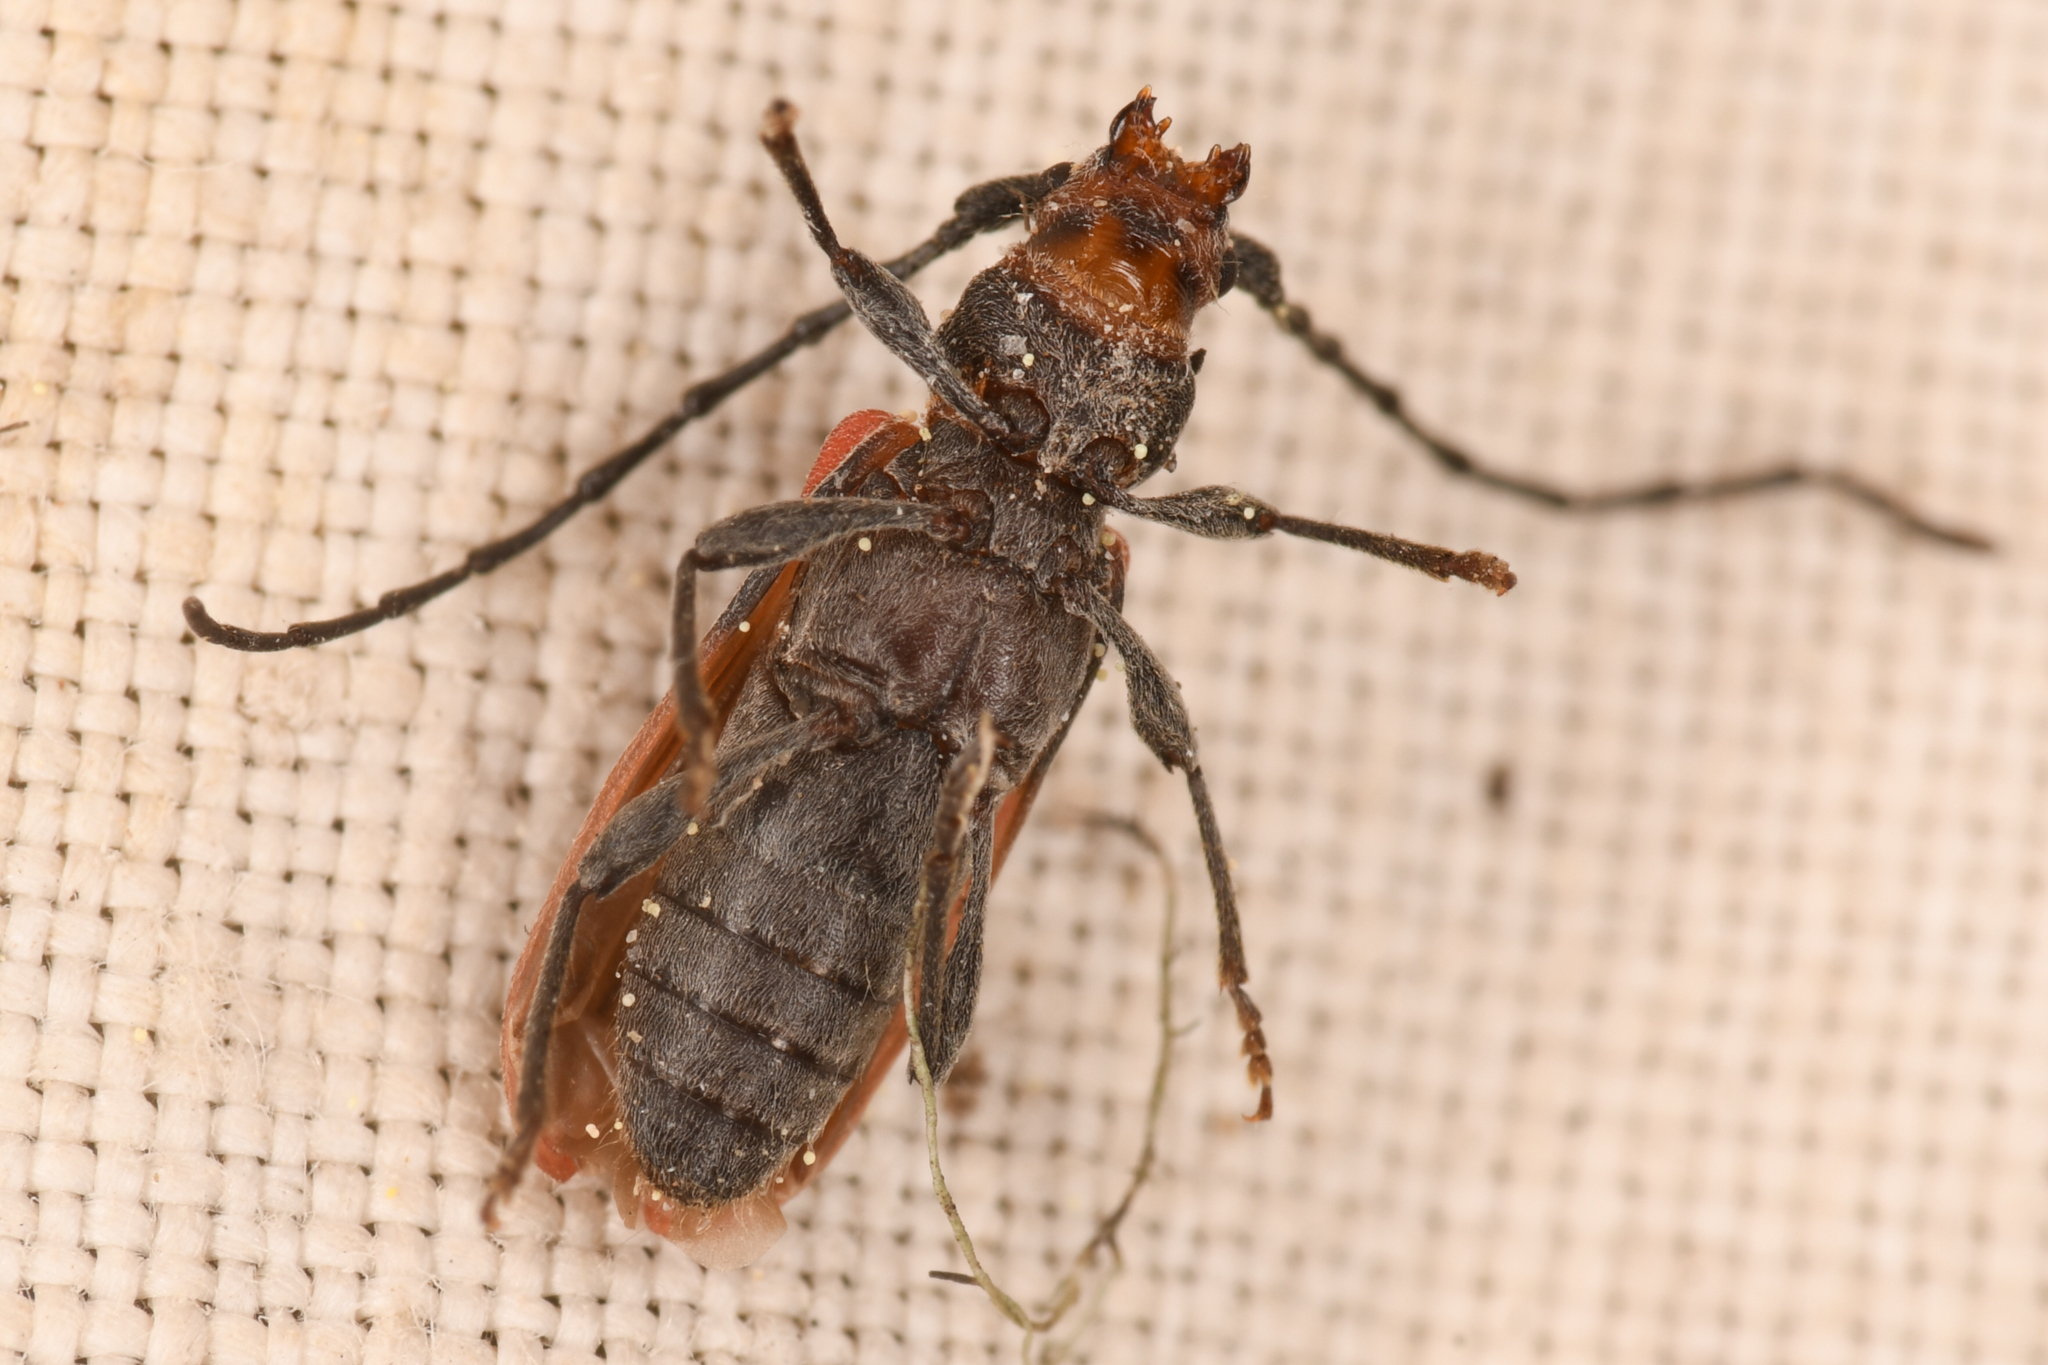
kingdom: Animalia
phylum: Arthropoda
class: Insecta
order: Coleoptera
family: Cerambycidae
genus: Holopleura
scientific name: Holopleura marginata
